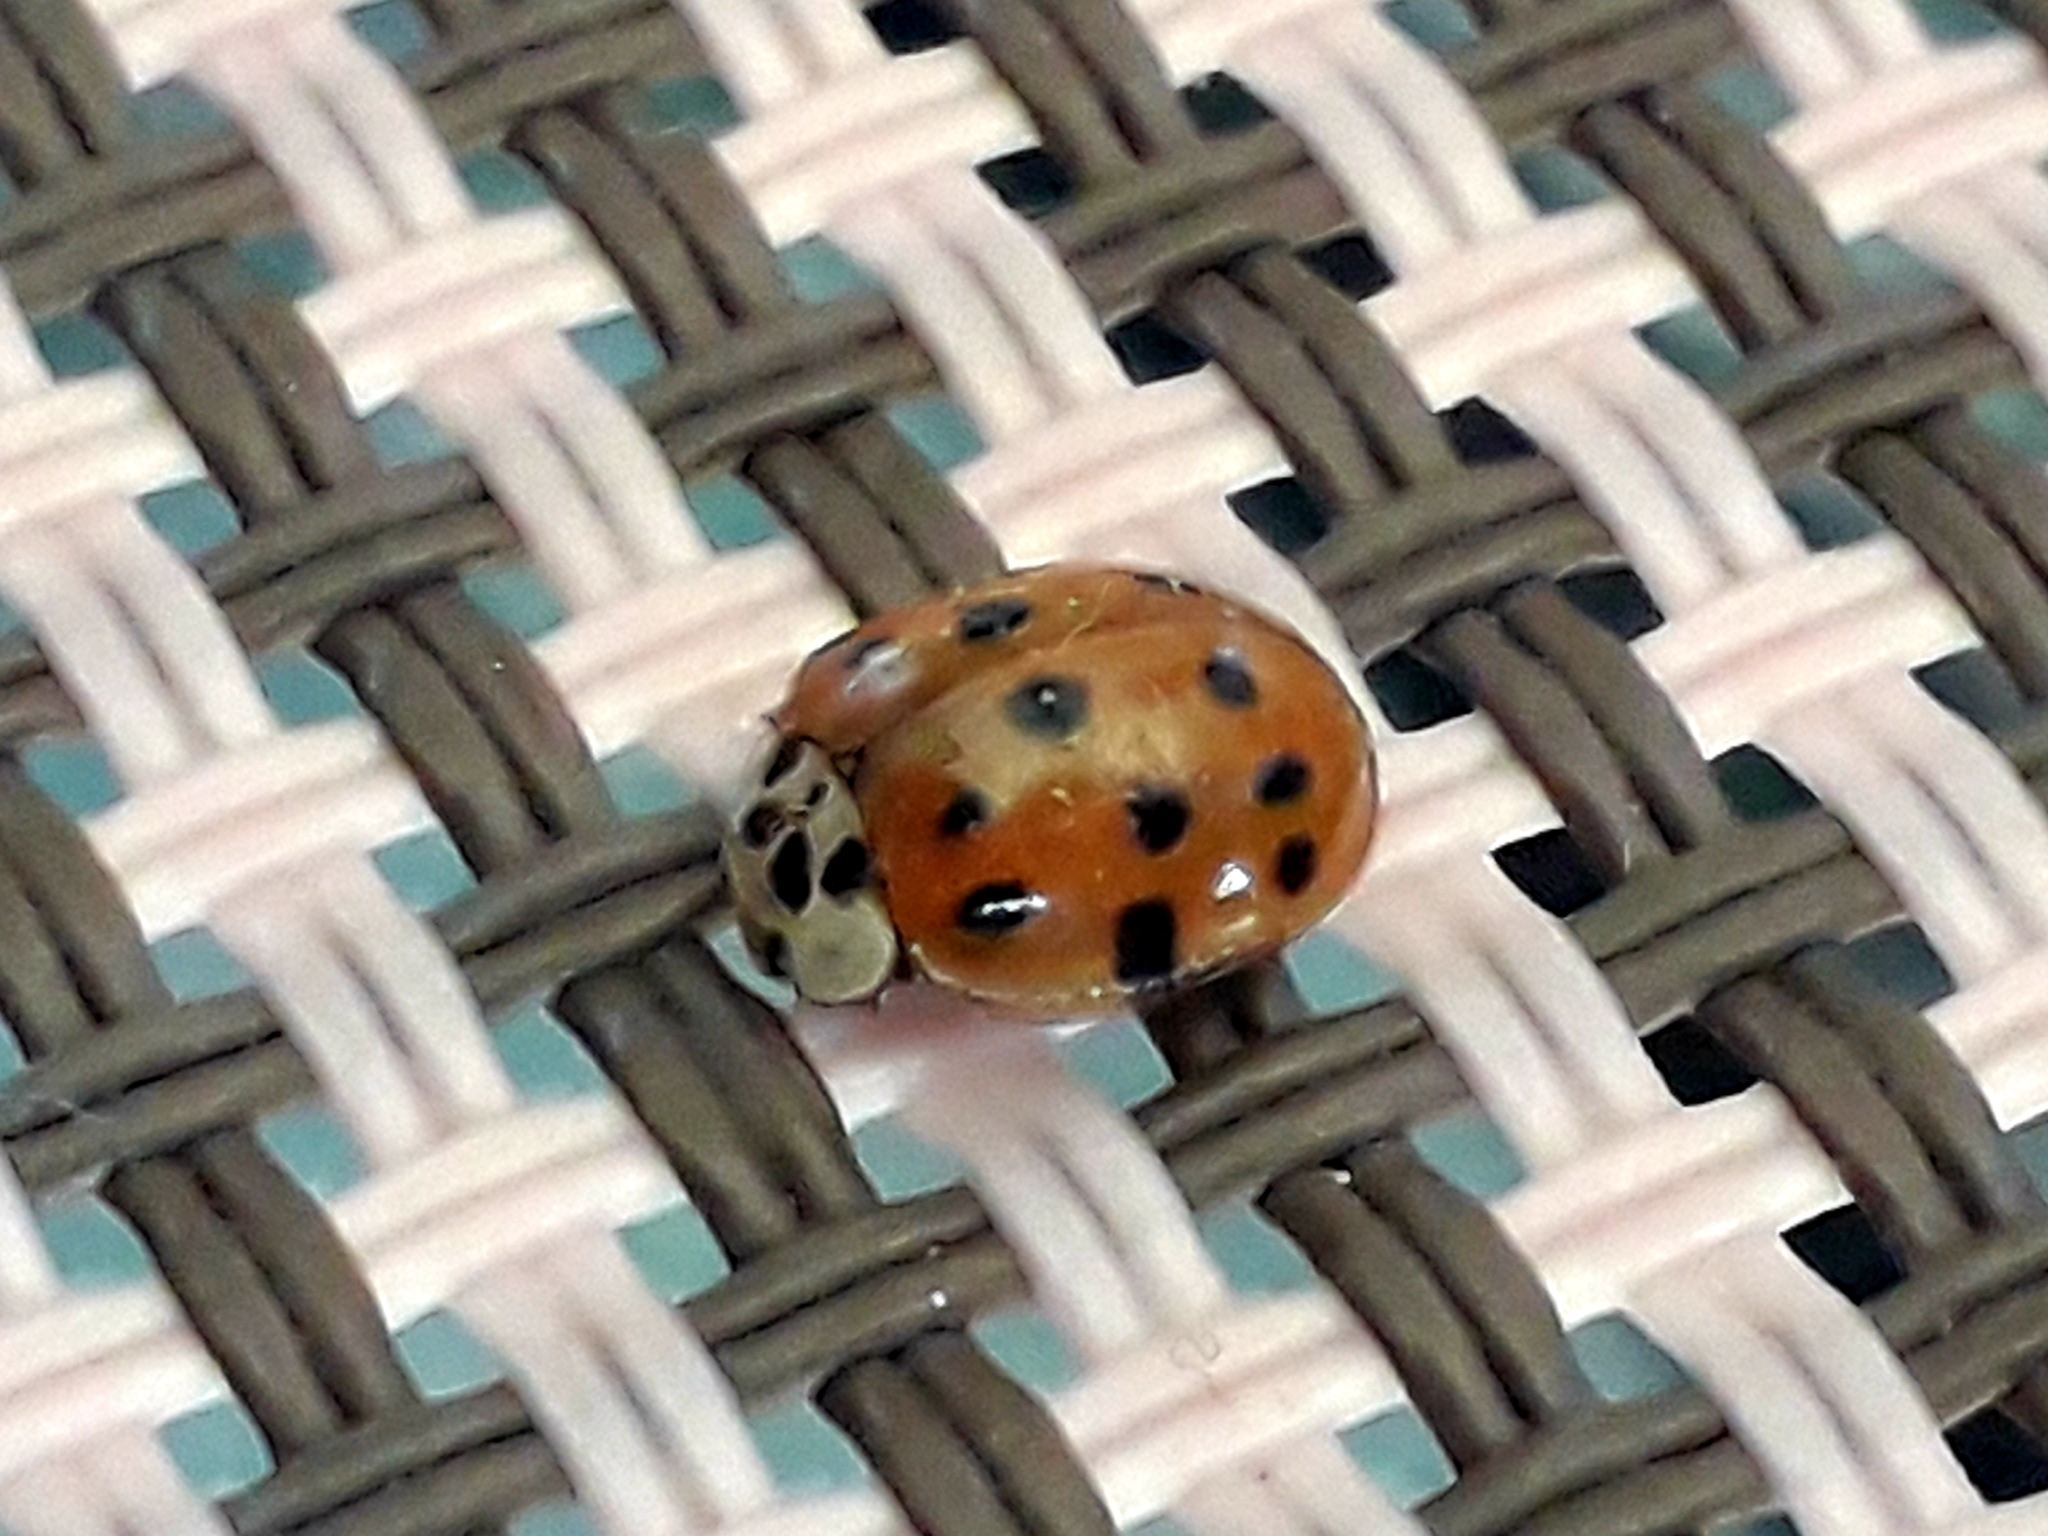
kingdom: Animalia
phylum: Arthropoda
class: Insecta
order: Coleoptera
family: Coccinellidae
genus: Harmonia
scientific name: Harmonia axyridis
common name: Harlequin ladybird
